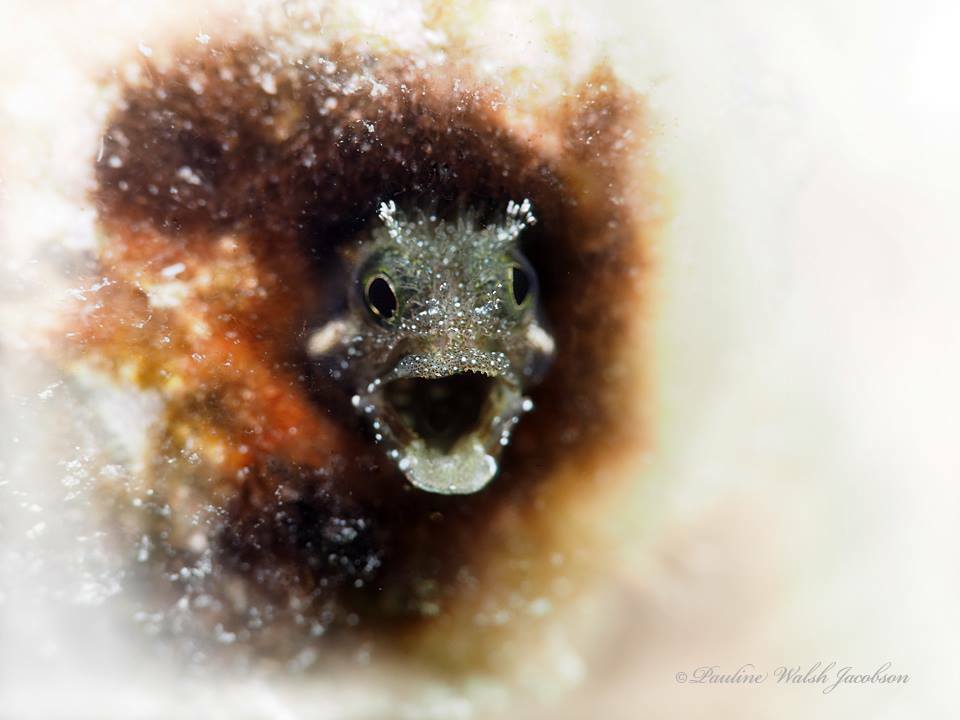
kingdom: Animalia
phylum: Chordata
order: Perciformes
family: Chaenopsidae
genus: Acanthemblemaria
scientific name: Acanthemblemaria spinosa
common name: Spinyhead blenny
